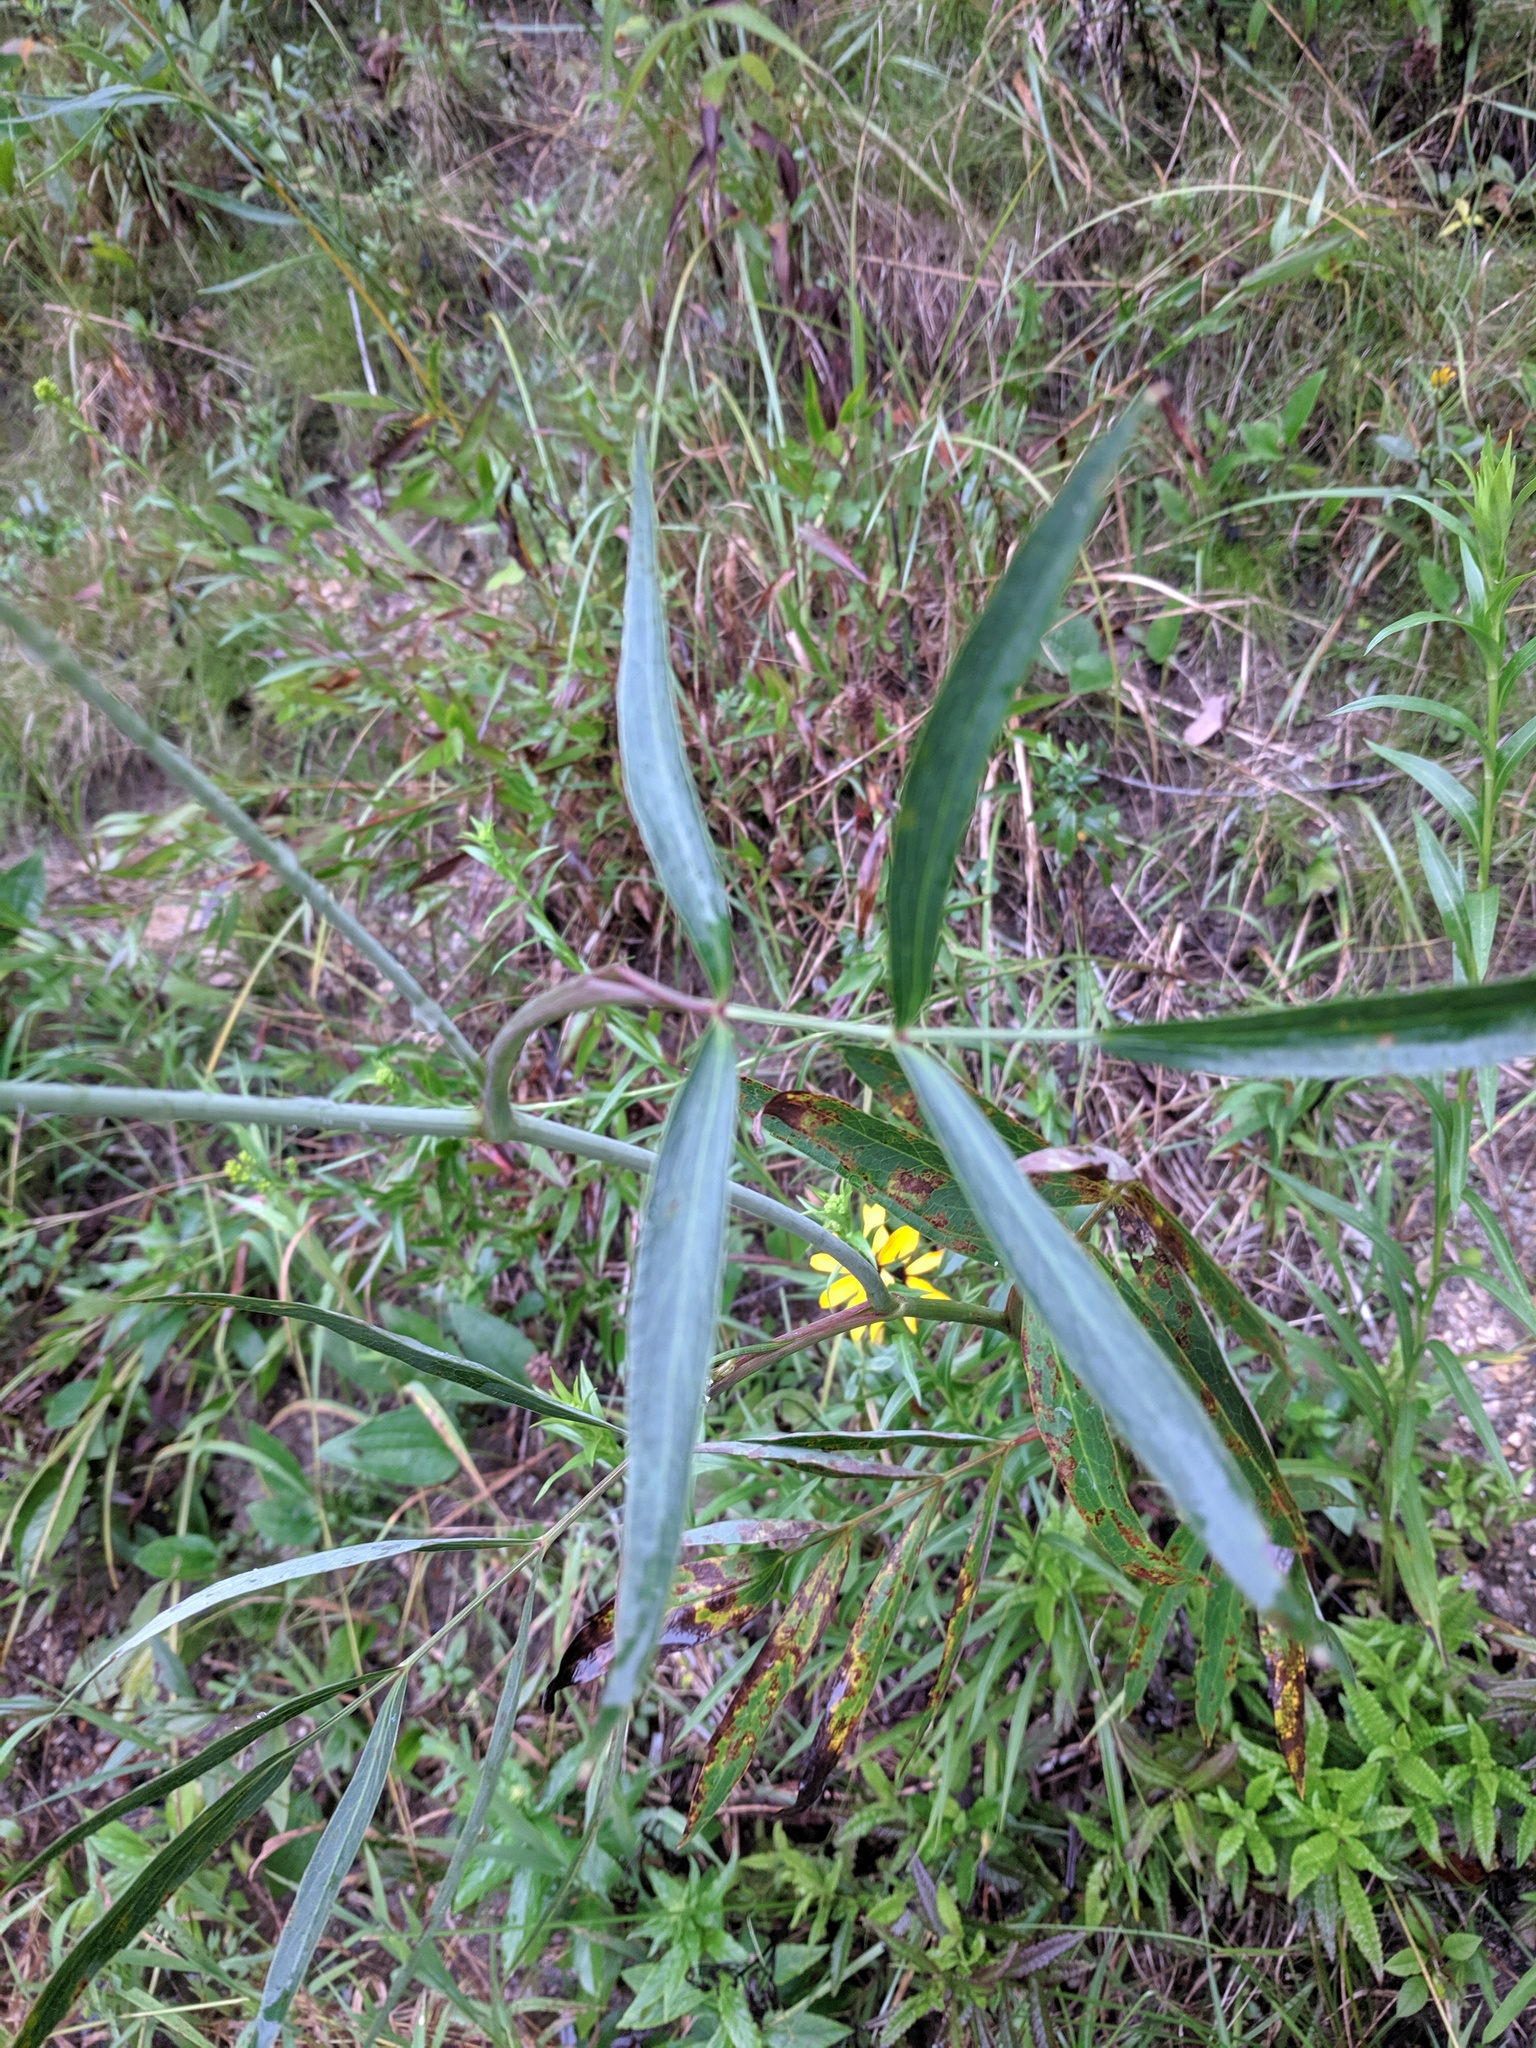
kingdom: Plantae
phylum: Tracheophyta
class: Magnoliopsida
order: Apiales
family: Apiaceae
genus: Oxypolis
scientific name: Oxypolis rigidior
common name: Cowbane
